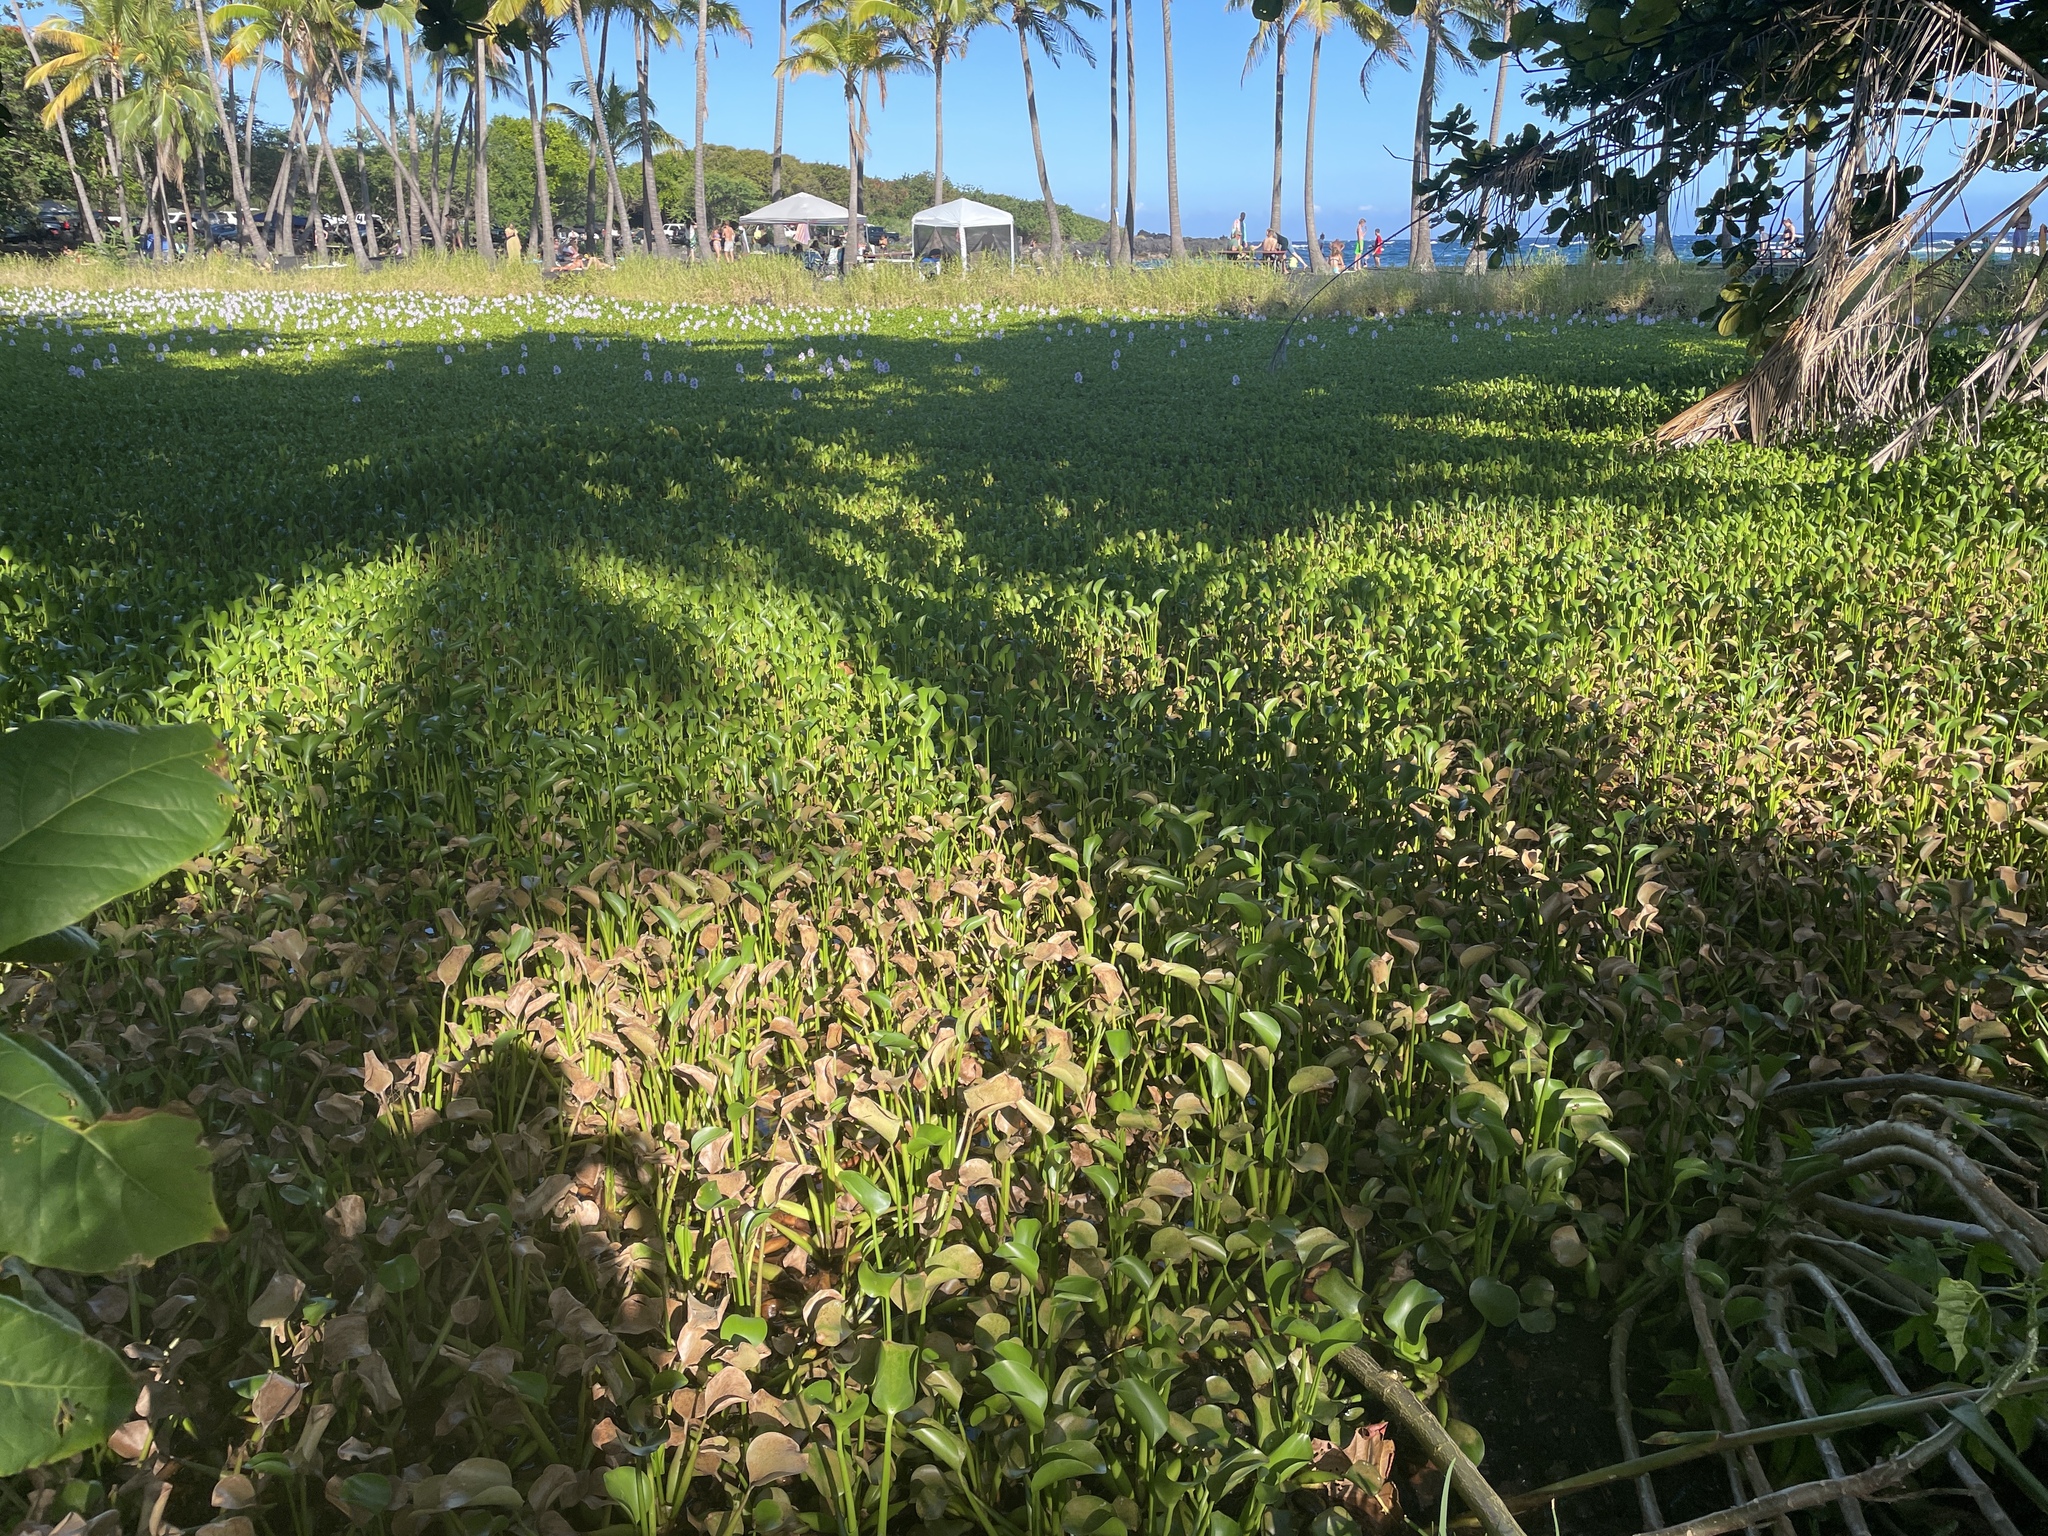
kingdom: Plantae
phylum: Tracheophyta
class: Magnoliopsida
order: Asterales
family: Asteraceae
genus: Sphagneticola
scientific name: Sphagneticola trilobata
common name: Bay biscayne creeping-oxeye
